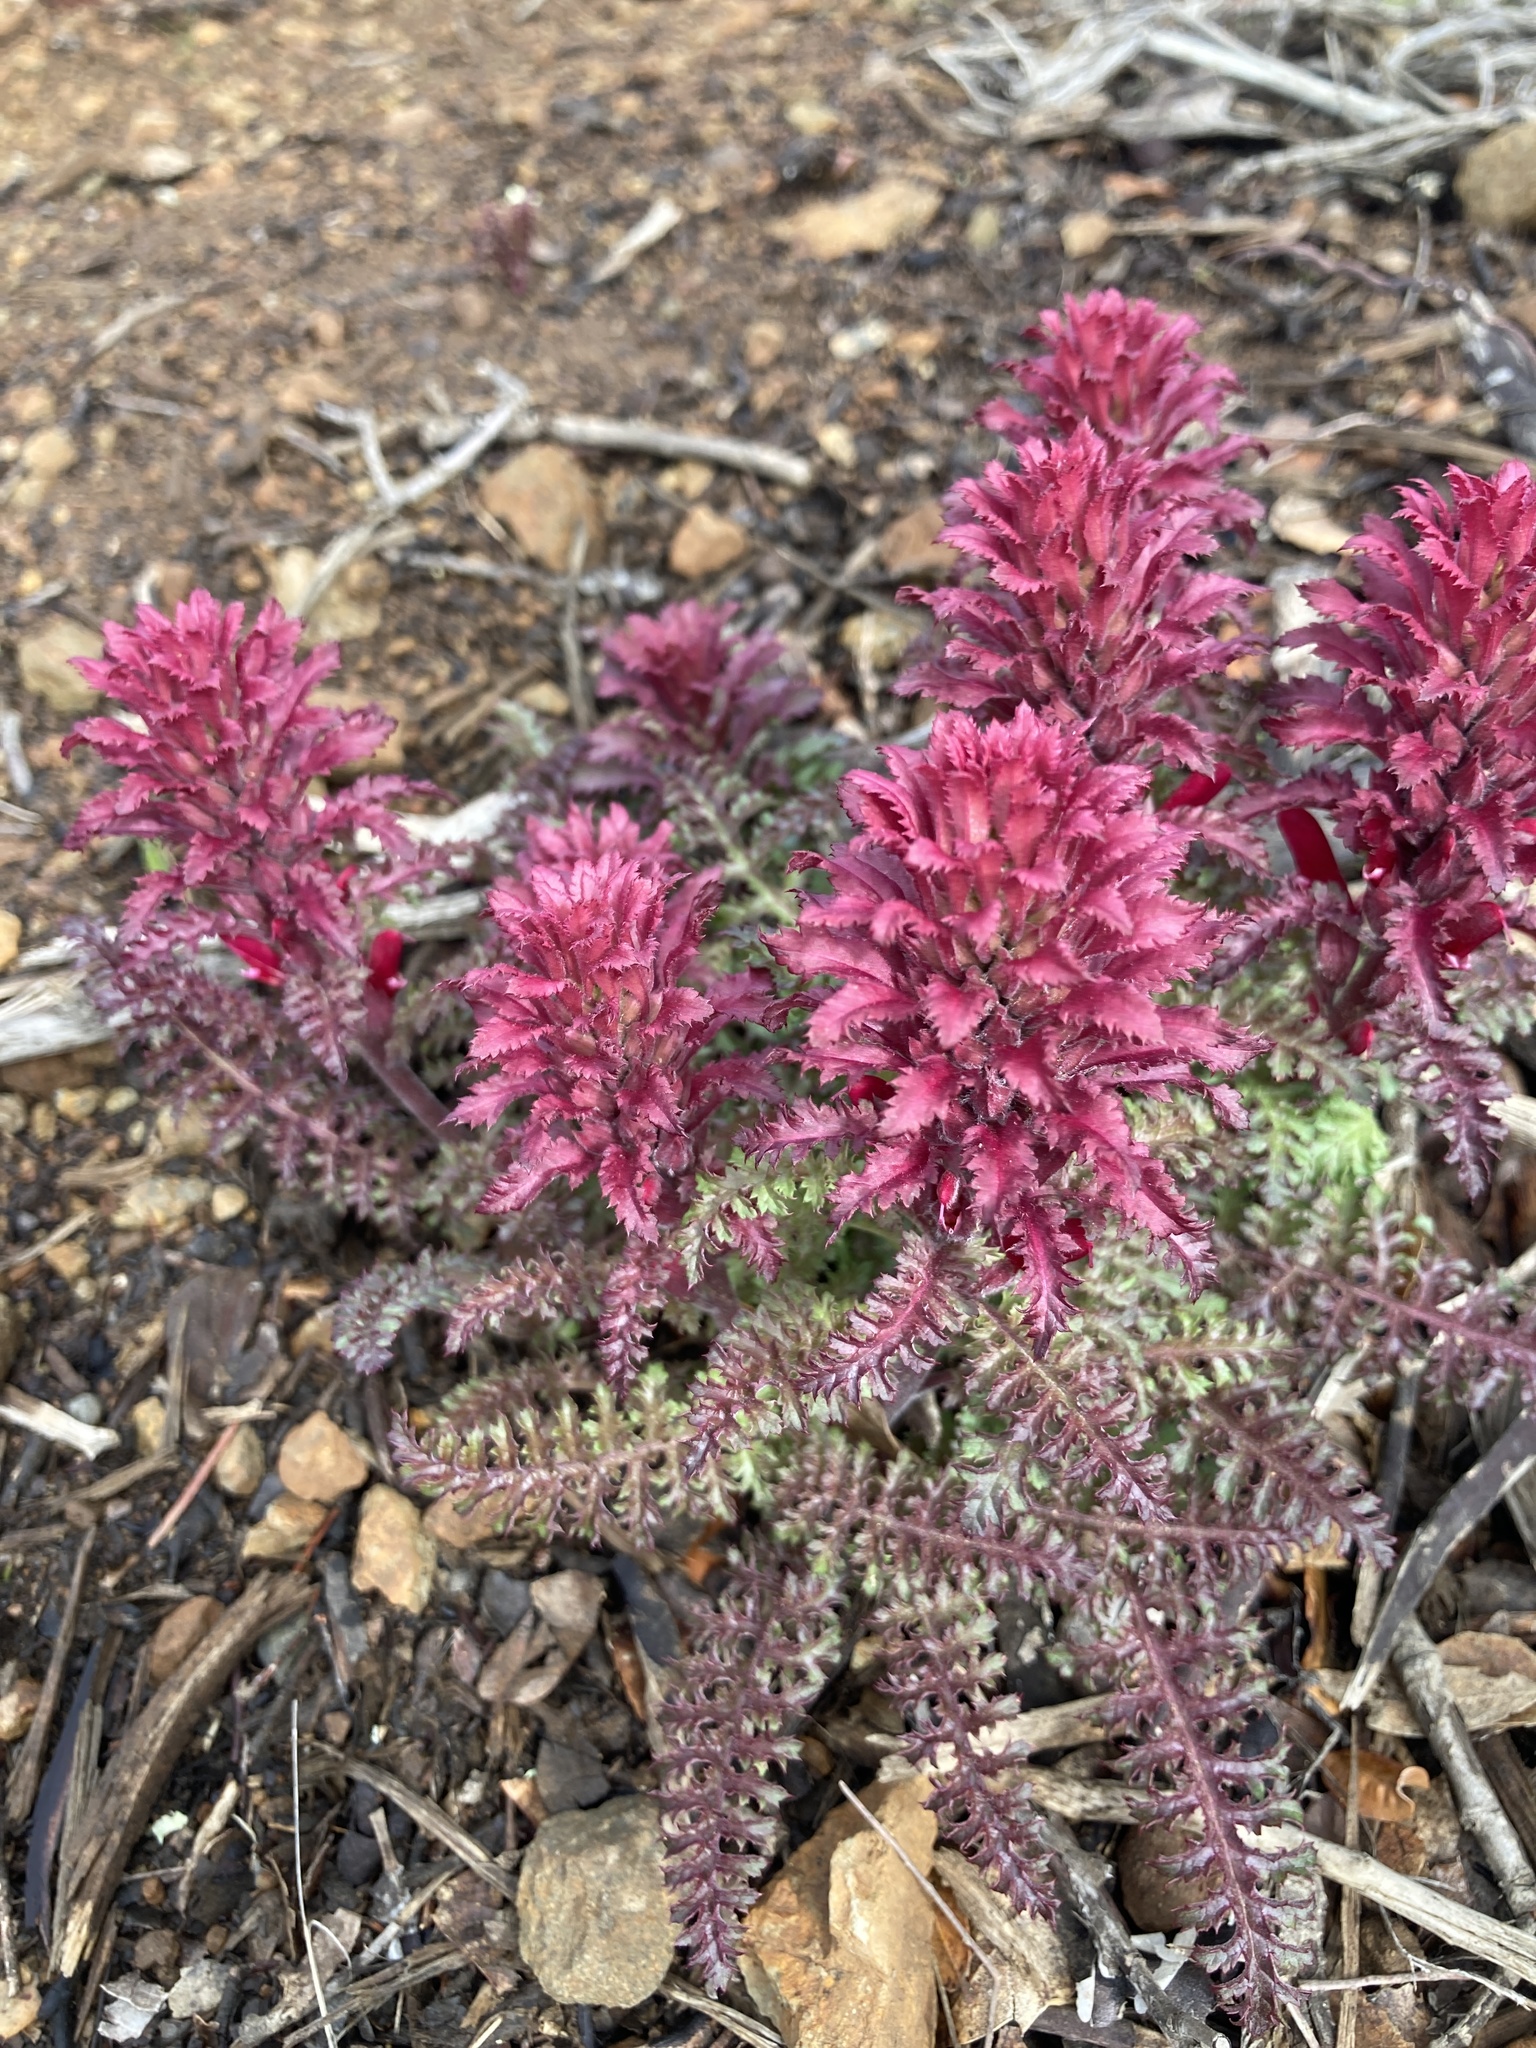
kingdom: Plantae
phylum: Tracheophyta
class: Magnoliopsida
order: Lamiales
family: Orobanchaceae
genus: Pedicularis
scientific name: Pedicularis densiflora
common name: Indian warrior
